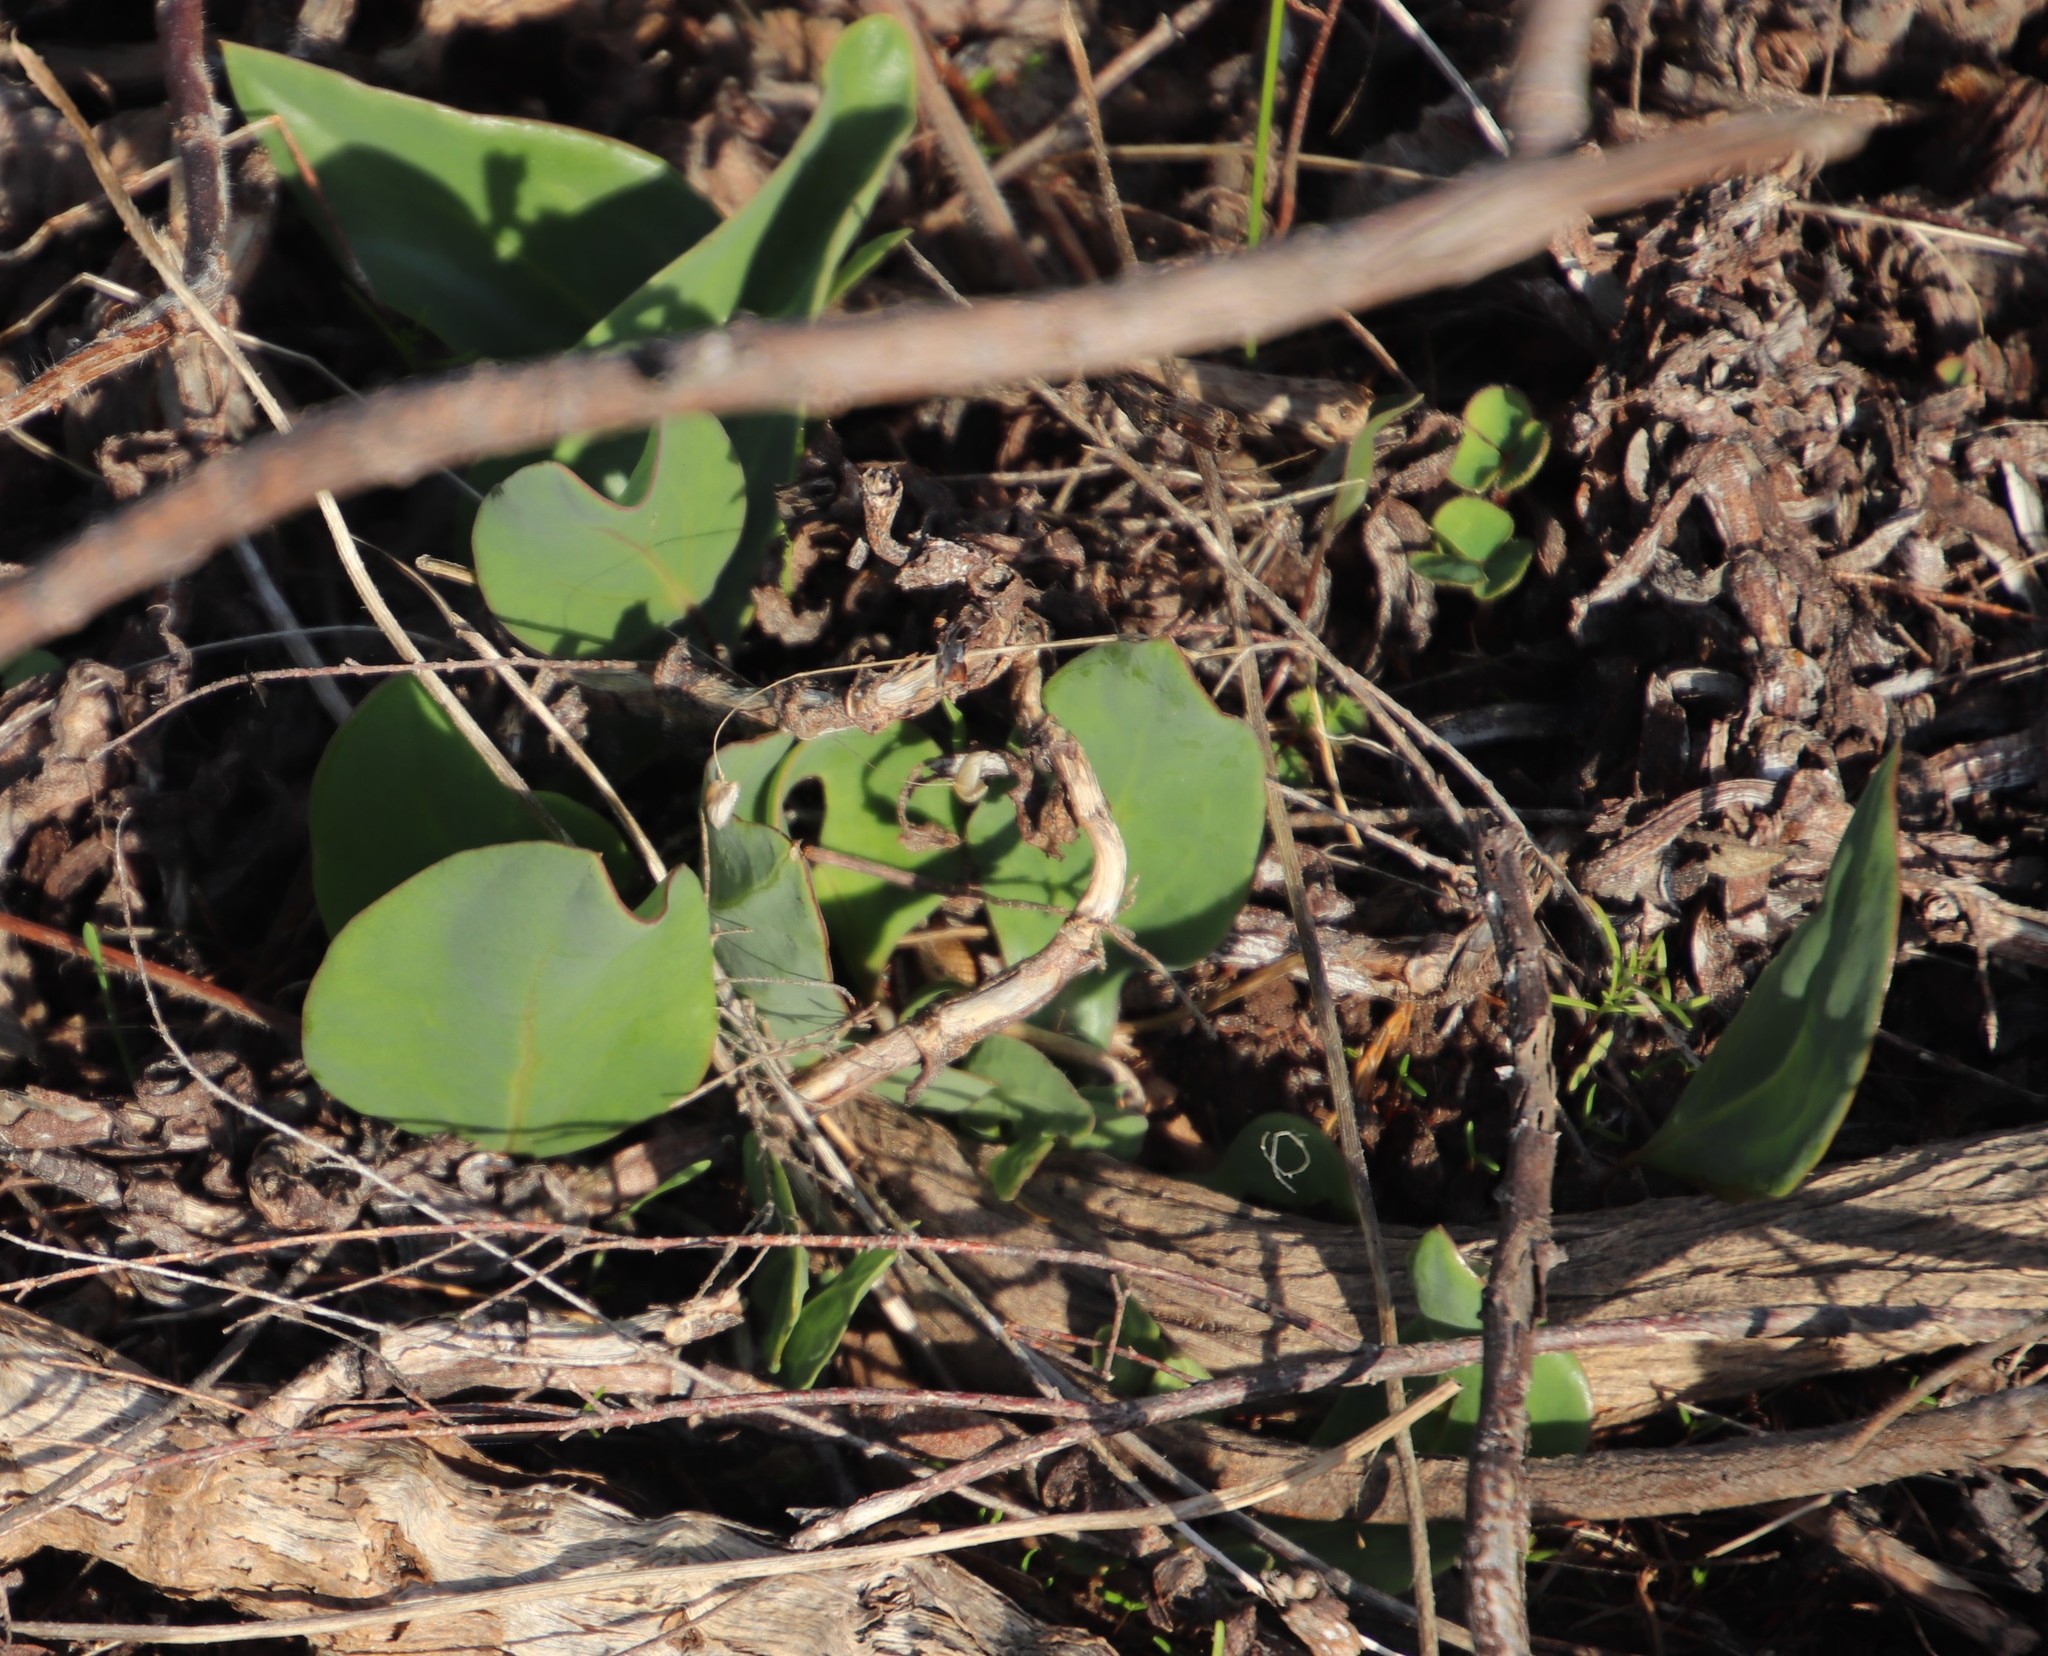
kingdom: Plantae
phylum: Tracheophyta
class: Magnoliopsida
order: Asterales
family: Asteraceae
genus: Othonna
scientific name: Othonna bulbosa
